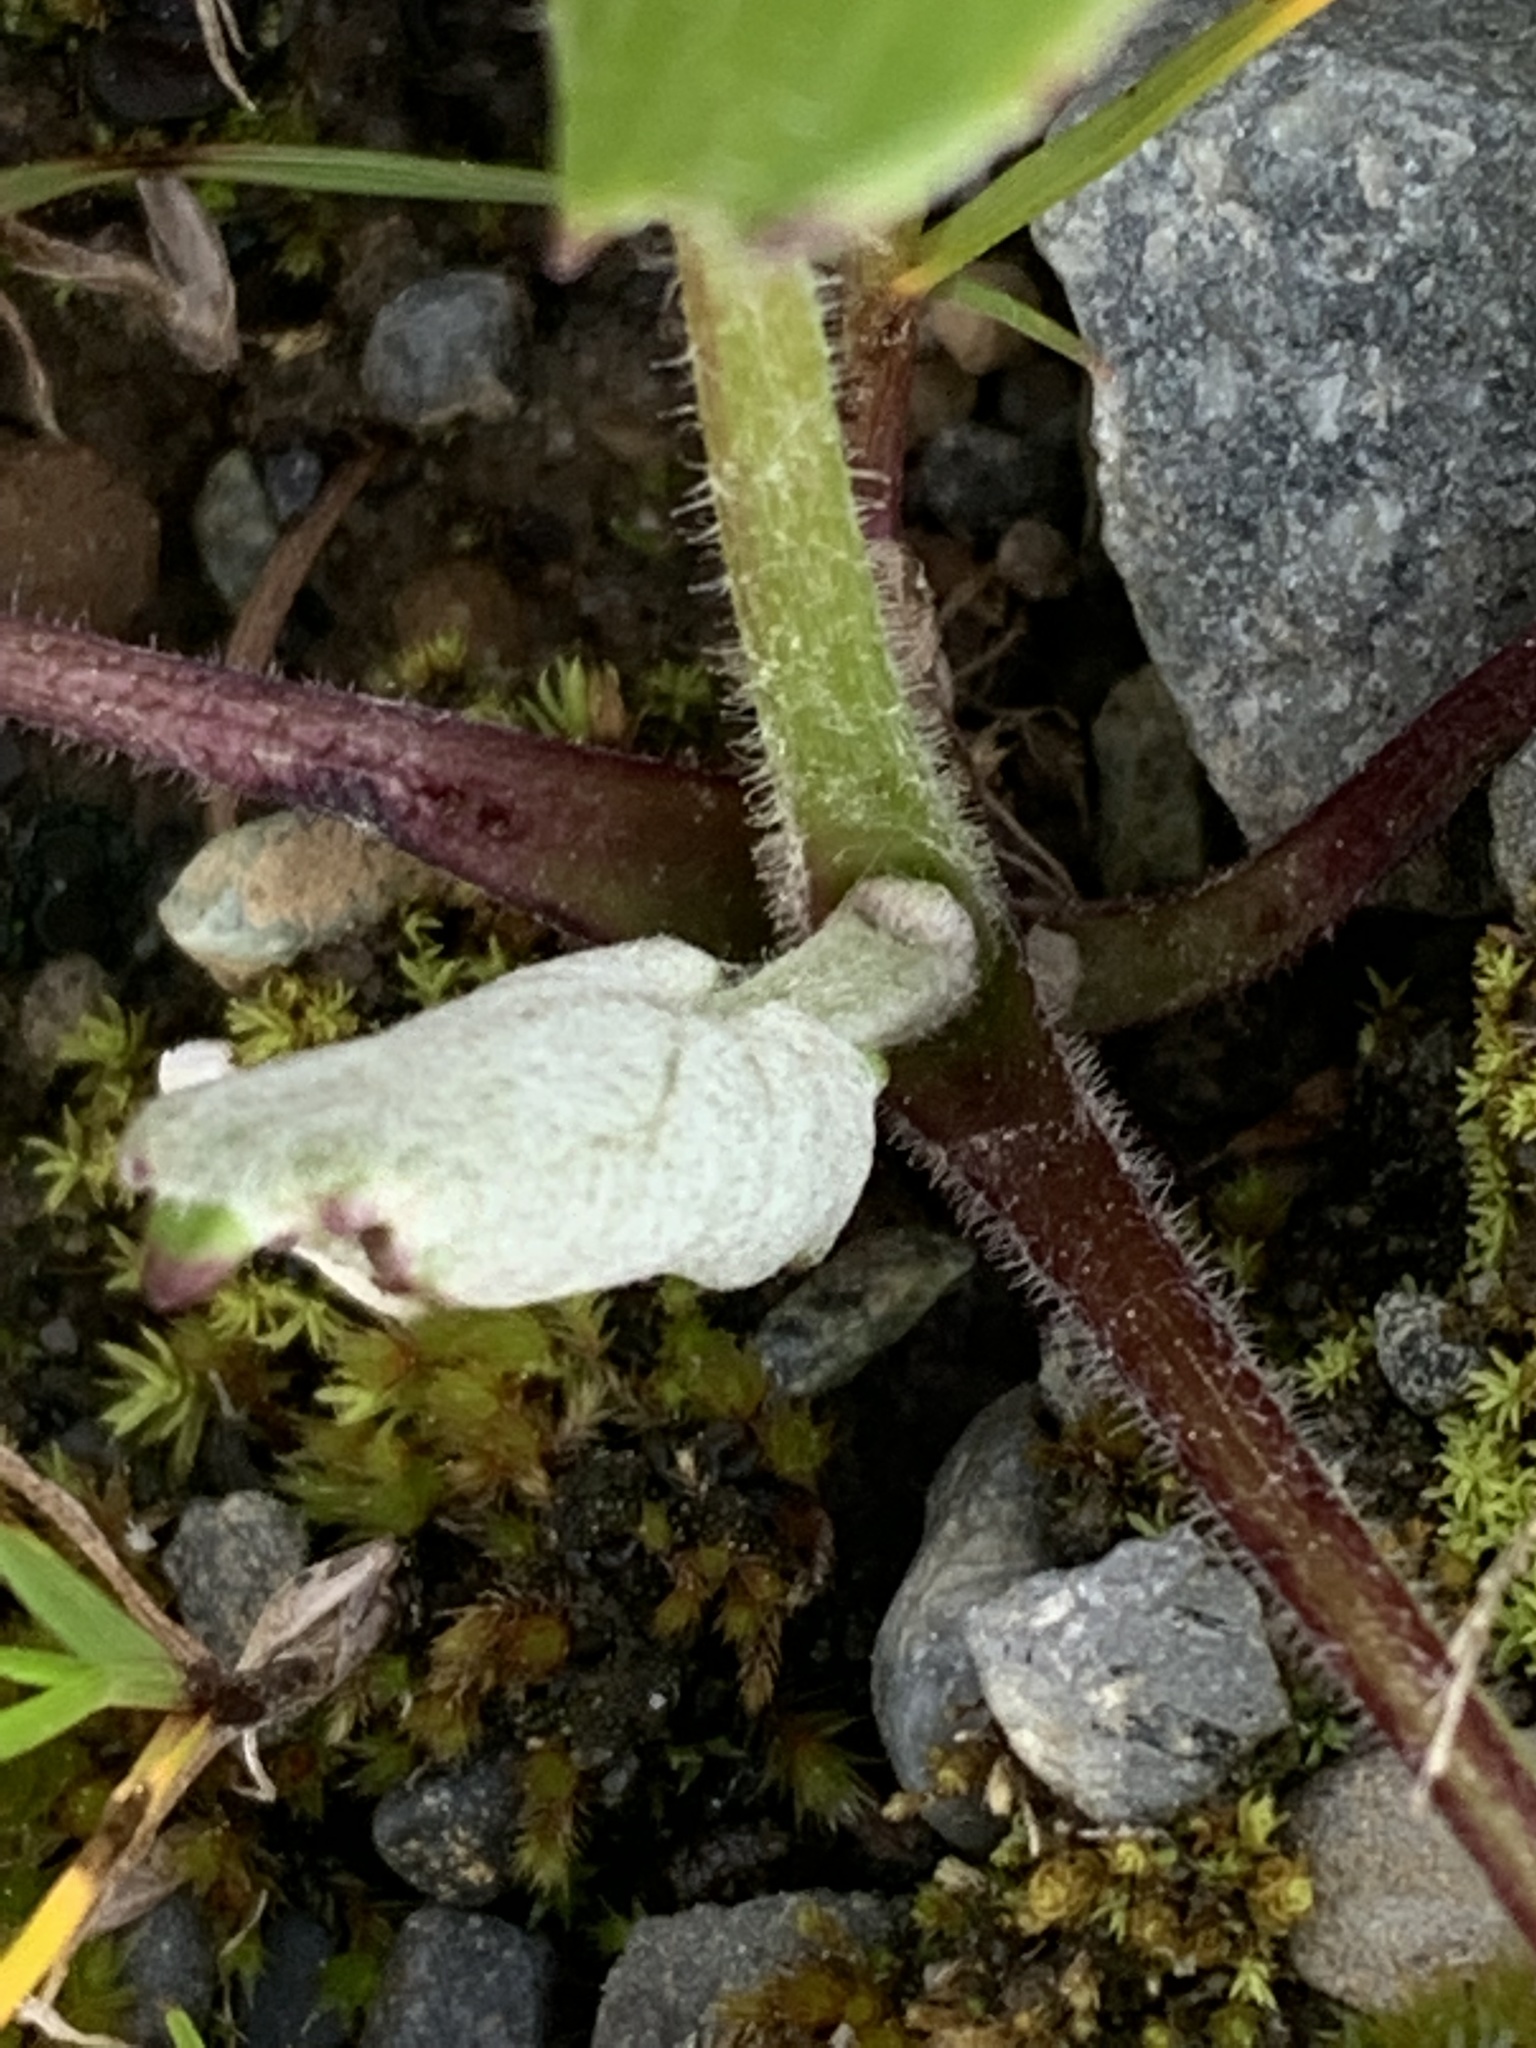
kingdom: Plantae
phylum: Tracheophyta
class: Magnoliopsida
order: Asterales
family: Asteraceae
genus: Tussilago
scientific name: Tussilago farfara
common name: Coltsfoot
